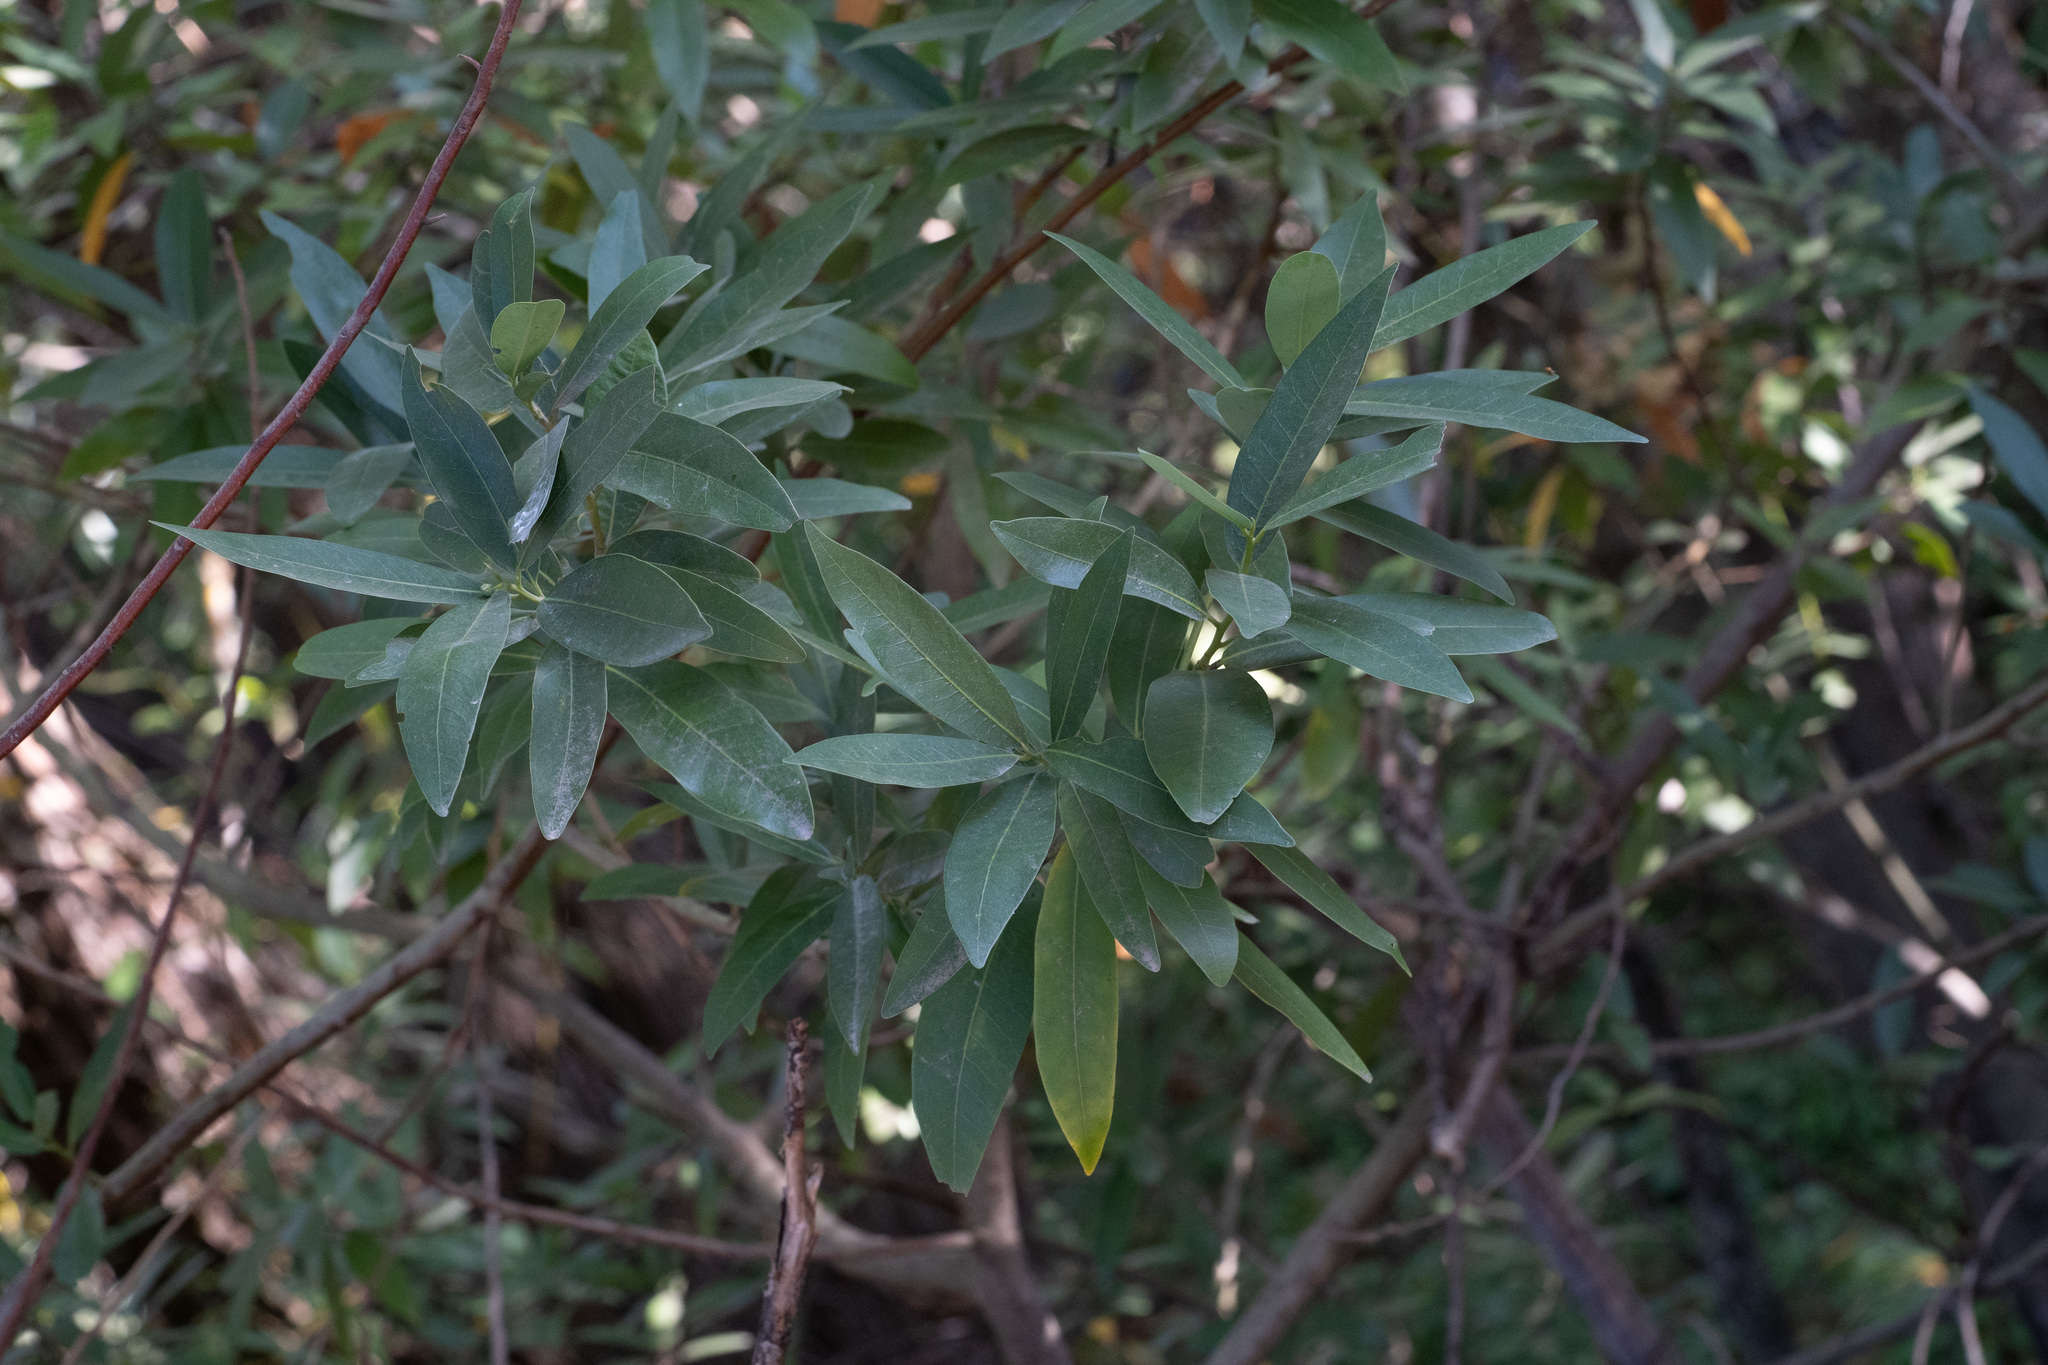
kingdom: Plantae
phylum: Tracheophyta
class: Magnoliopsida
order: Laurales
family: Lauraceae
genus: Umbellularia
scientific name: Umbellularia californica
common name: California bay
